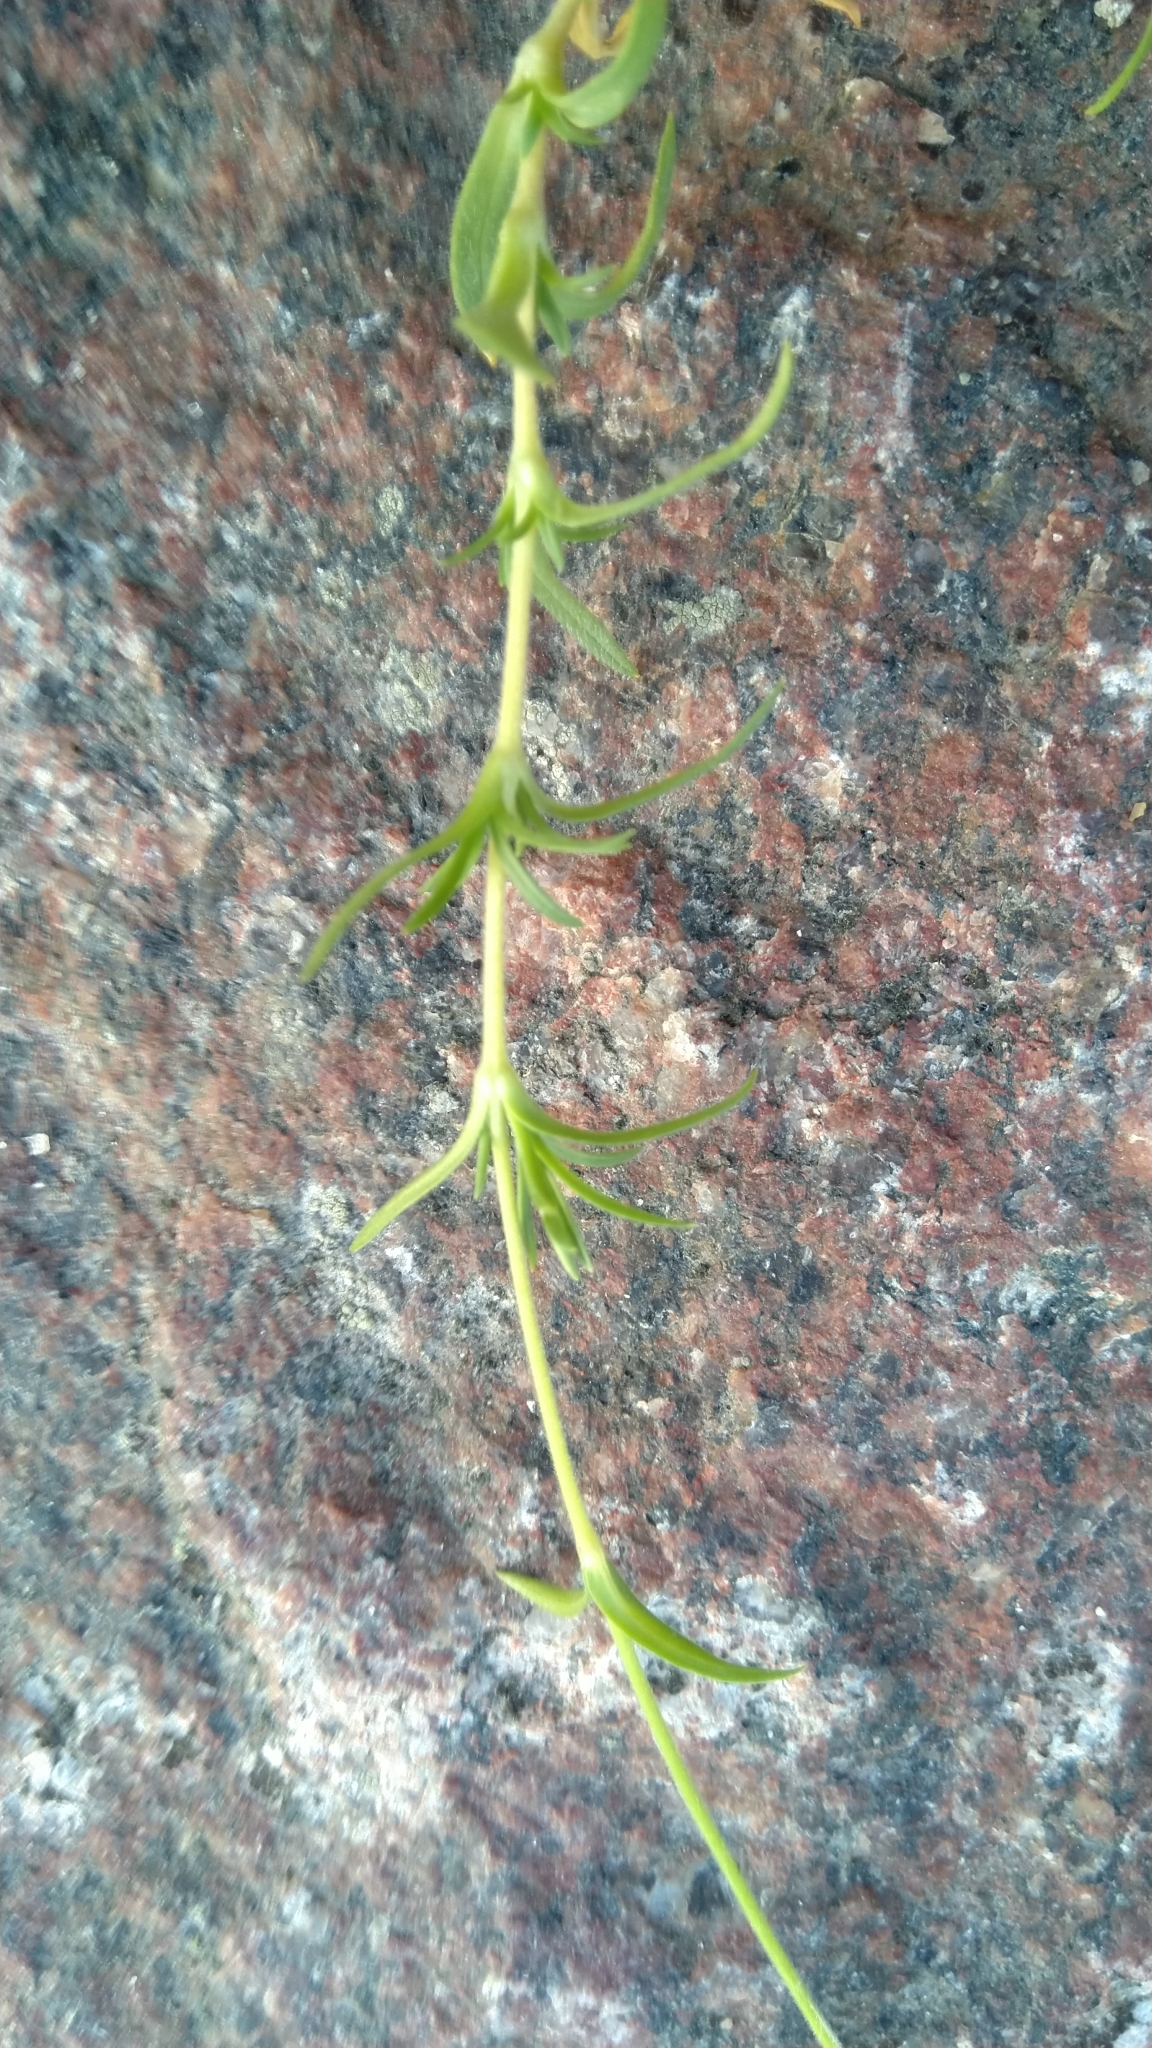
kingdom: Plantae
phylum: Tracheophyta
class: Magnoliopsida
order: Caryophyllales
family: Caryophyllaceae
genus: Cerastium
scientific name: Cerastium arvense
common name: Field mouse-ear
